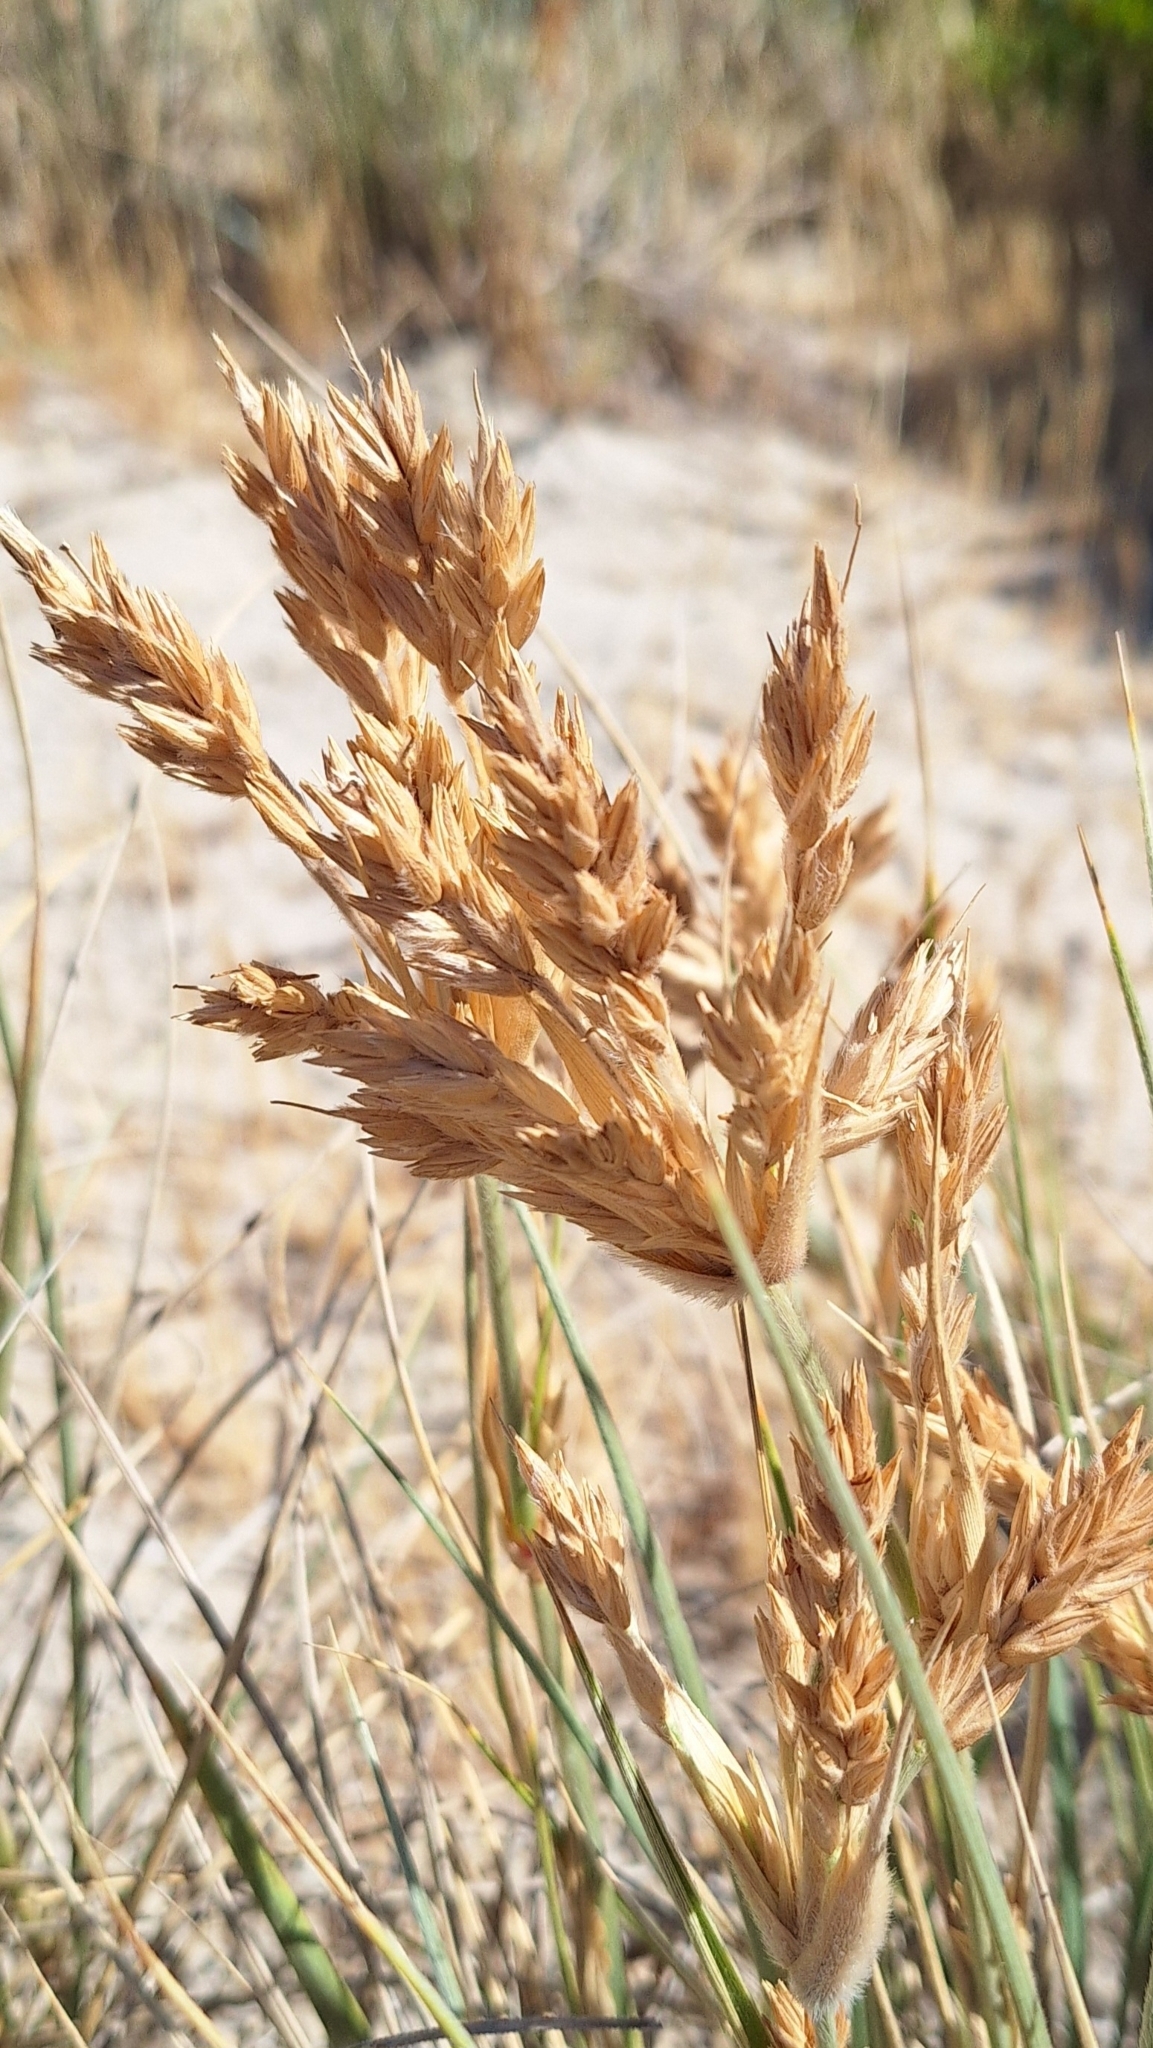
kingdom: Plantae
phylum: Tracheophyta
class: Liliopsida
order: Poales
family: Poaceae
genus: Spinifex
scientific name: Spinifex sericeus
